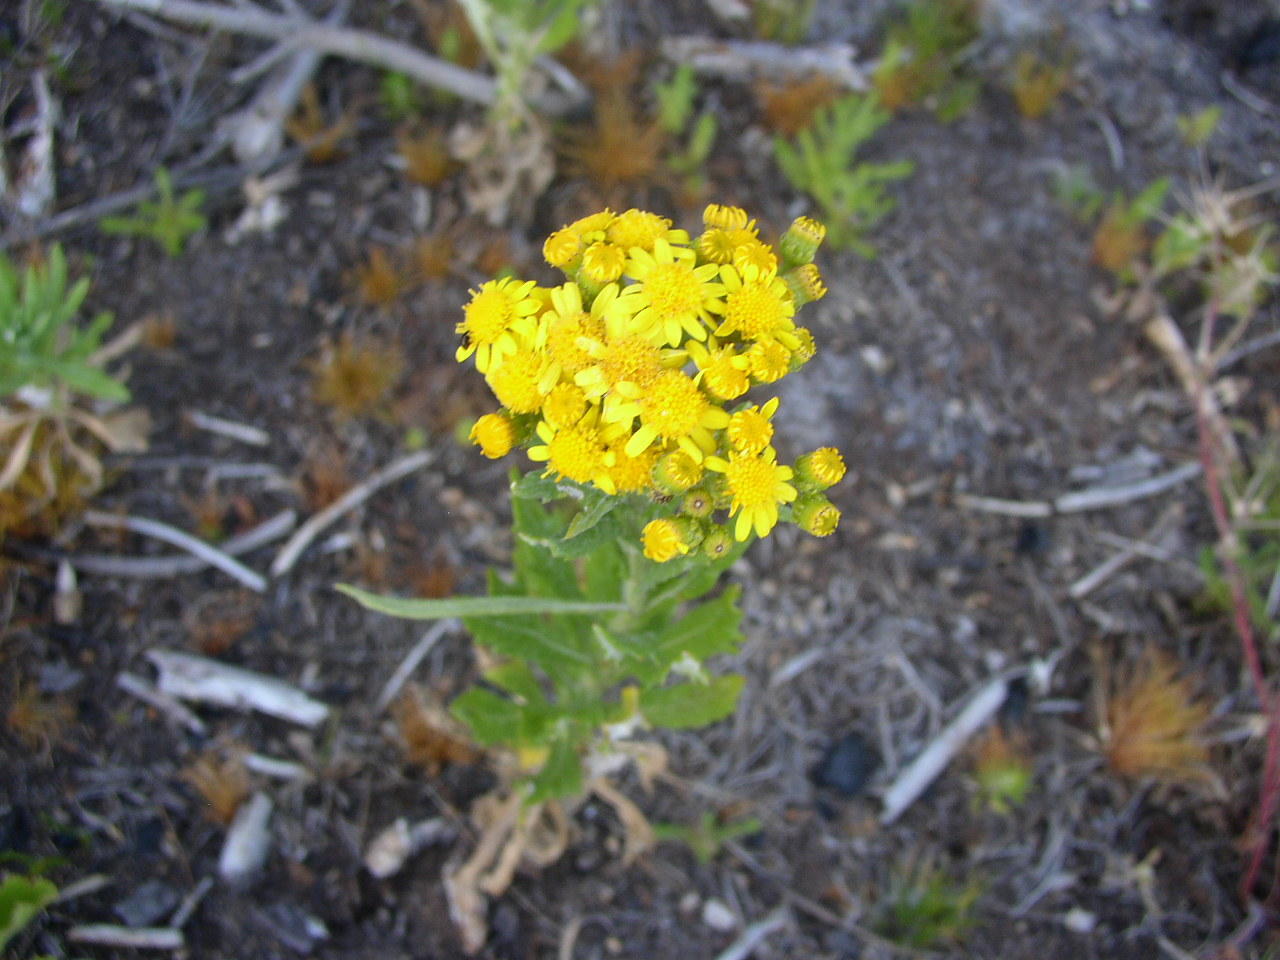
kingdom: Plantae
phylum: Tracheophyta
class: Magnoliopsida
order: Asterales
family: Asteraceae
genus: Senecio
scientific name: Senecio pterophorus
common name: Shoddy ragwort
